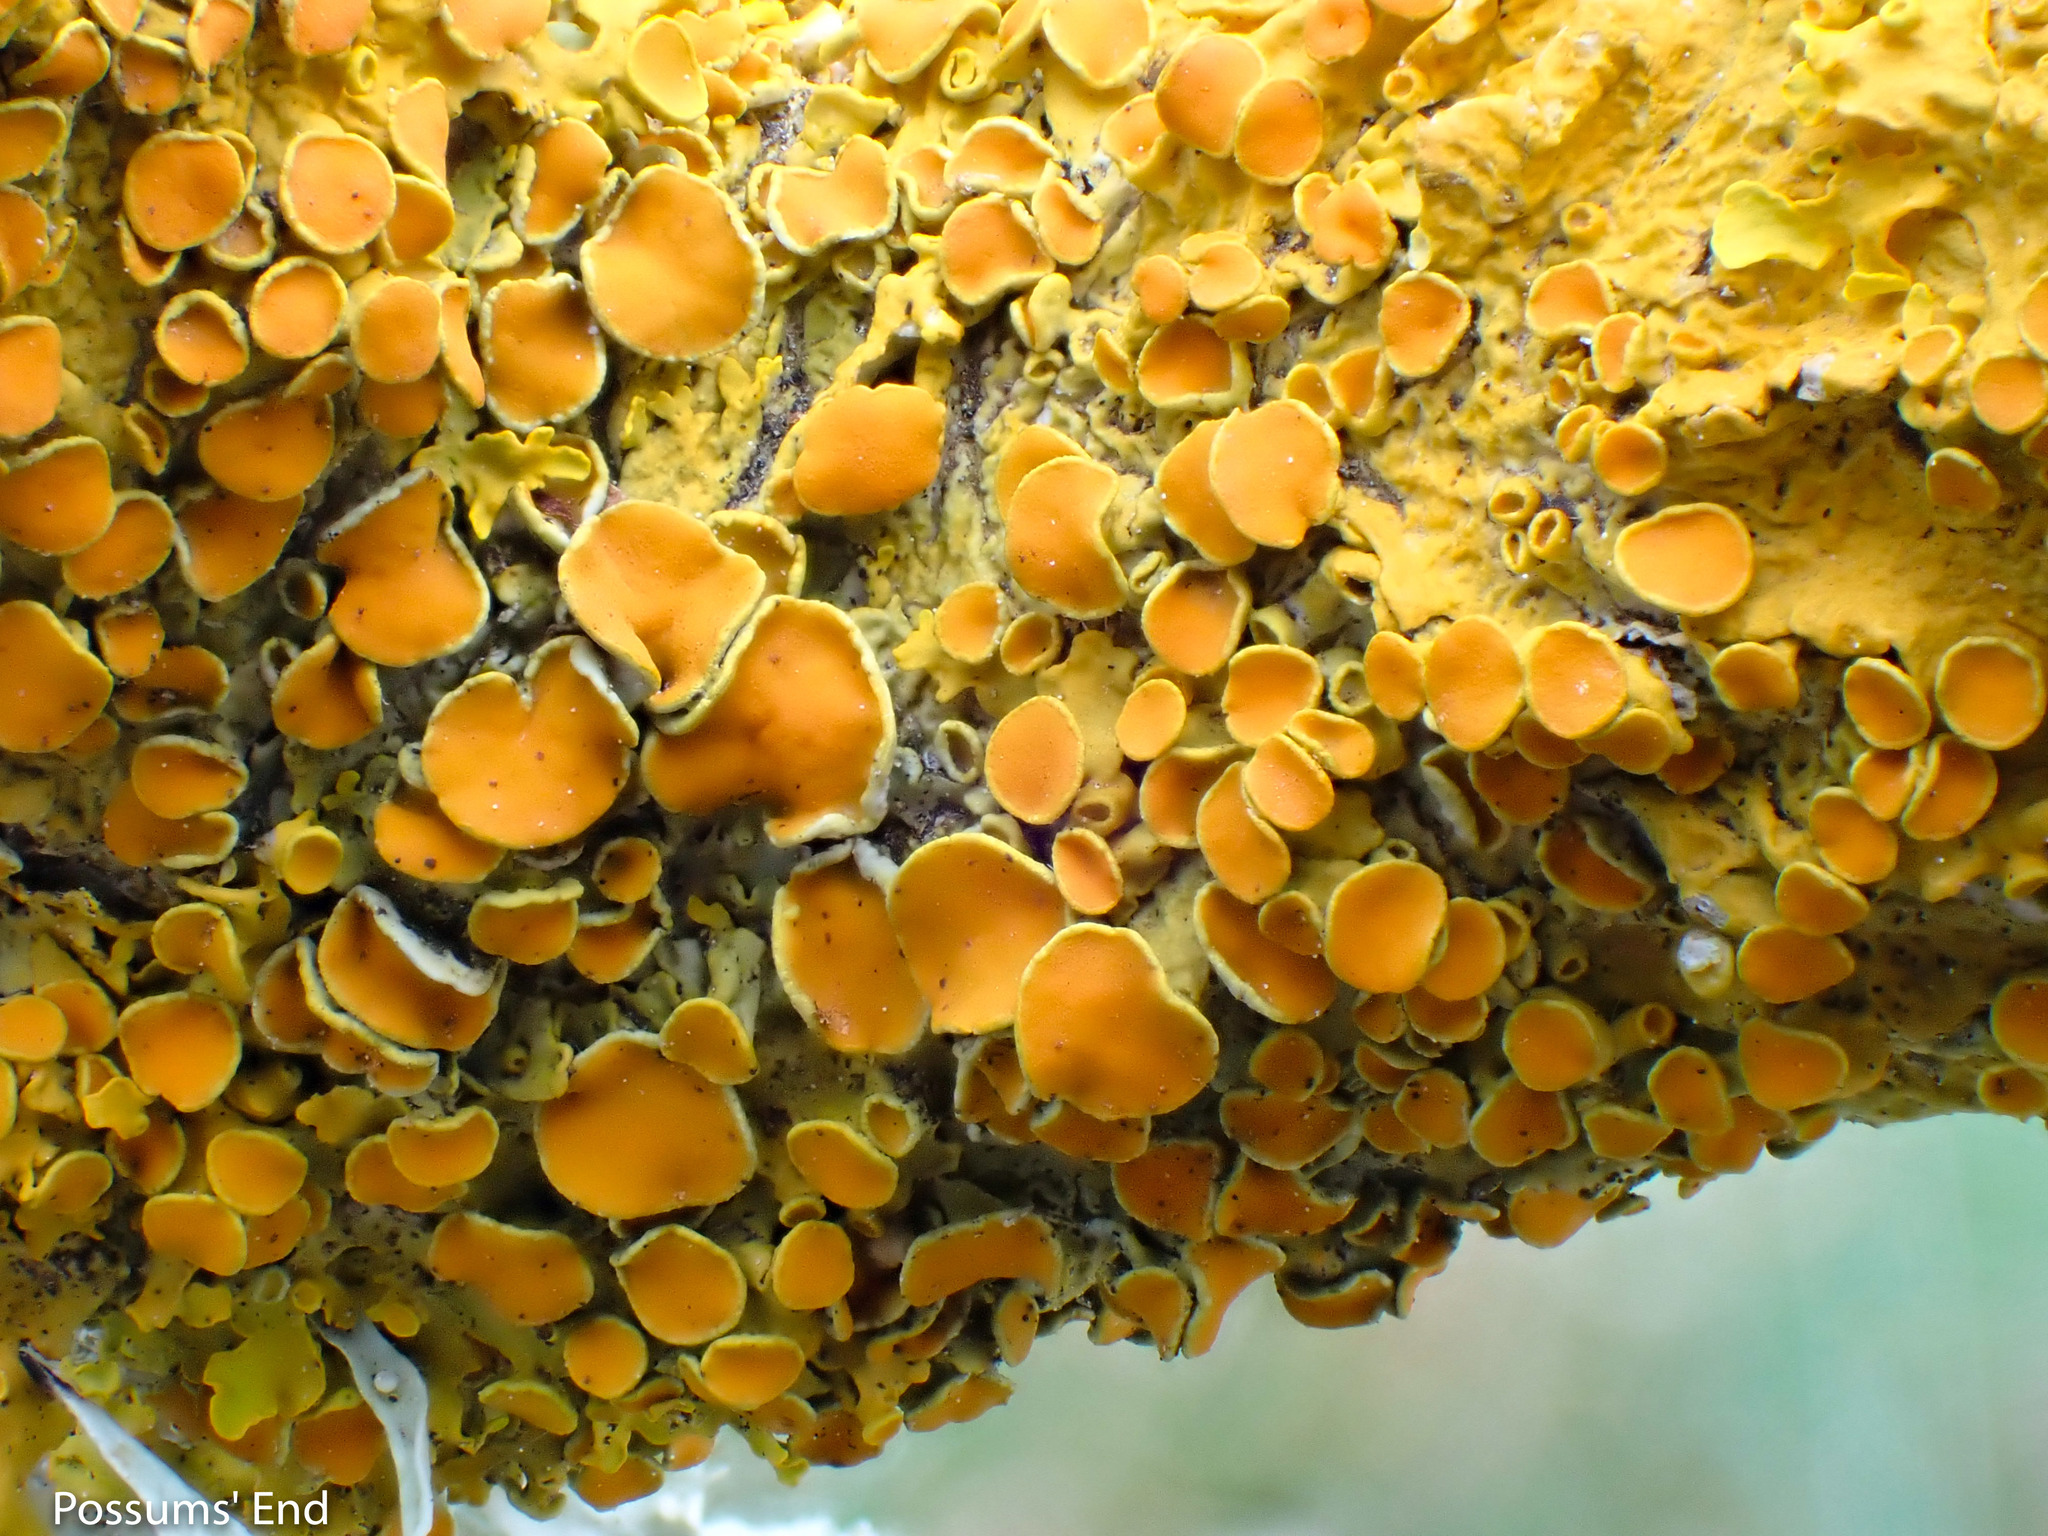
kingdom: Fungi
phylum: Ascomycota
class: Lecanoromycetes
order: Teloschistales
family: Teloschistaceae
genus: Xanthoria
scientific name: Xanthoria parietina
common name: Common orange lichen
